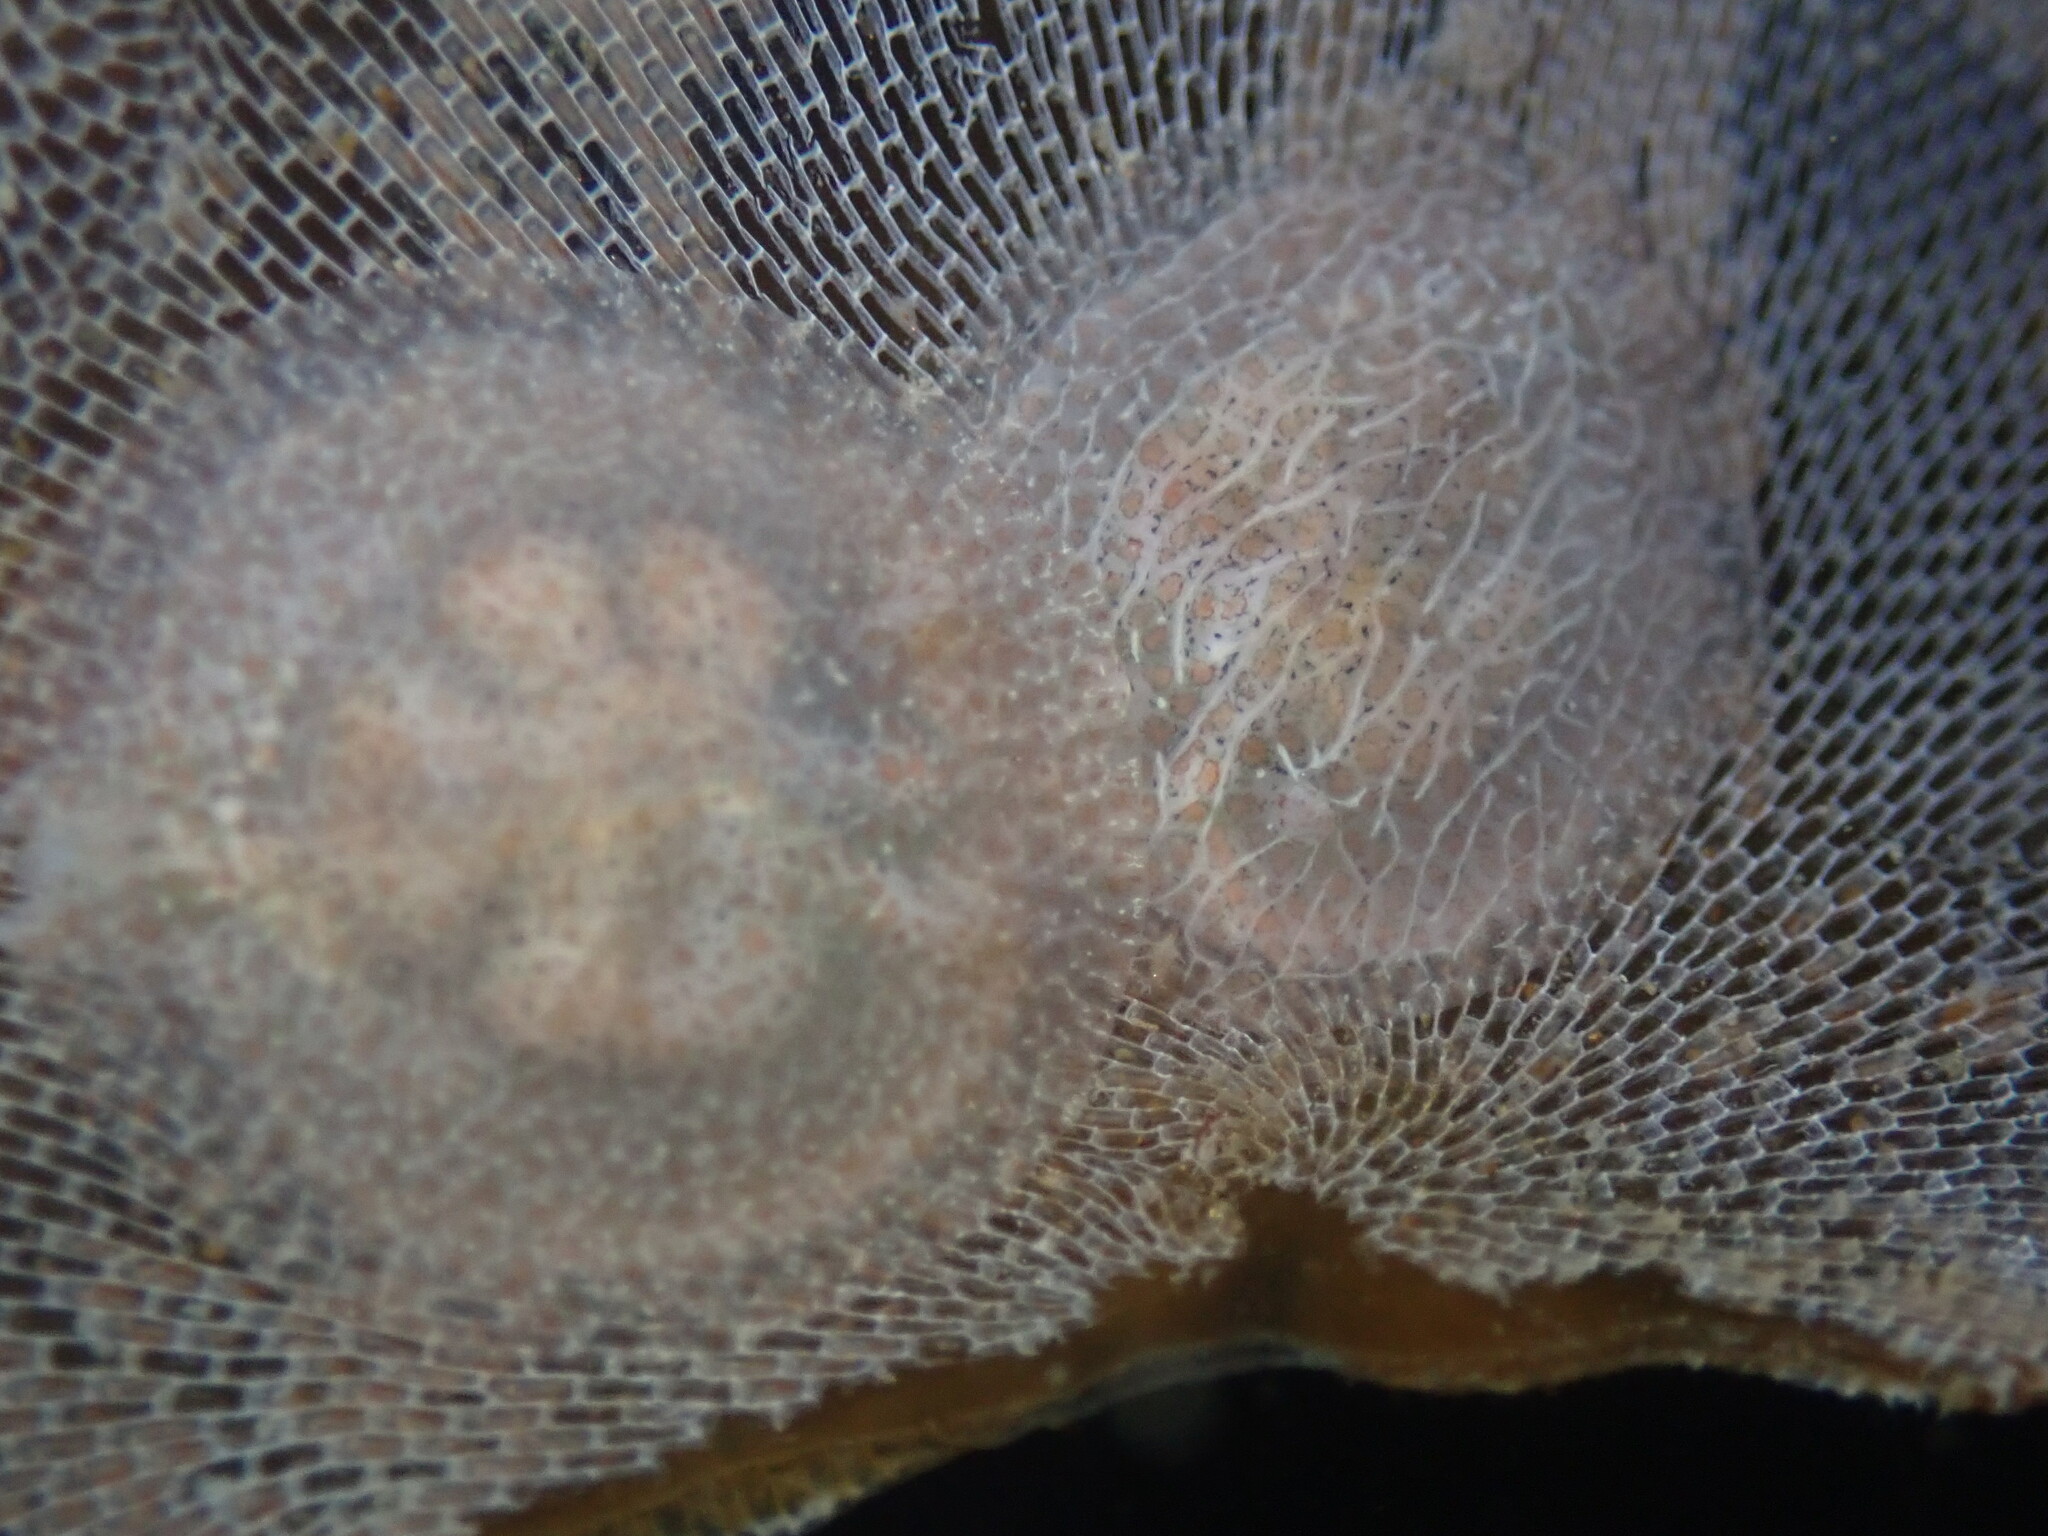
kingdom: Animalia
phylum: Mollusca
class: Gastropoda
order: Nudibranchia
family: Corambidae
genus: Corambe
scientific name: Corambe pacifica
